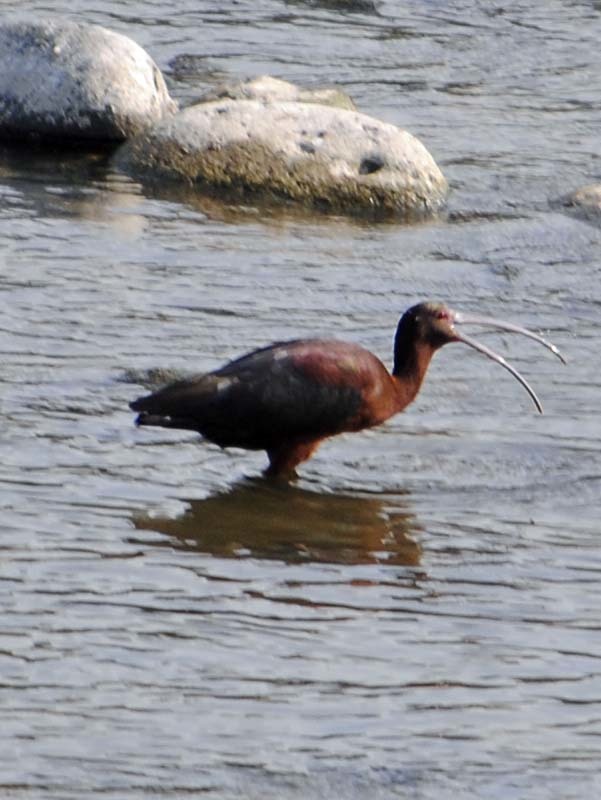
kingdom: Animalia
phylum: Chordata
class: Aves
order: Pelecaniformes
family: Threskiornithidae
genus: Plegadis
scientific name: Plegadis chihi
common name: White-faced ibis
